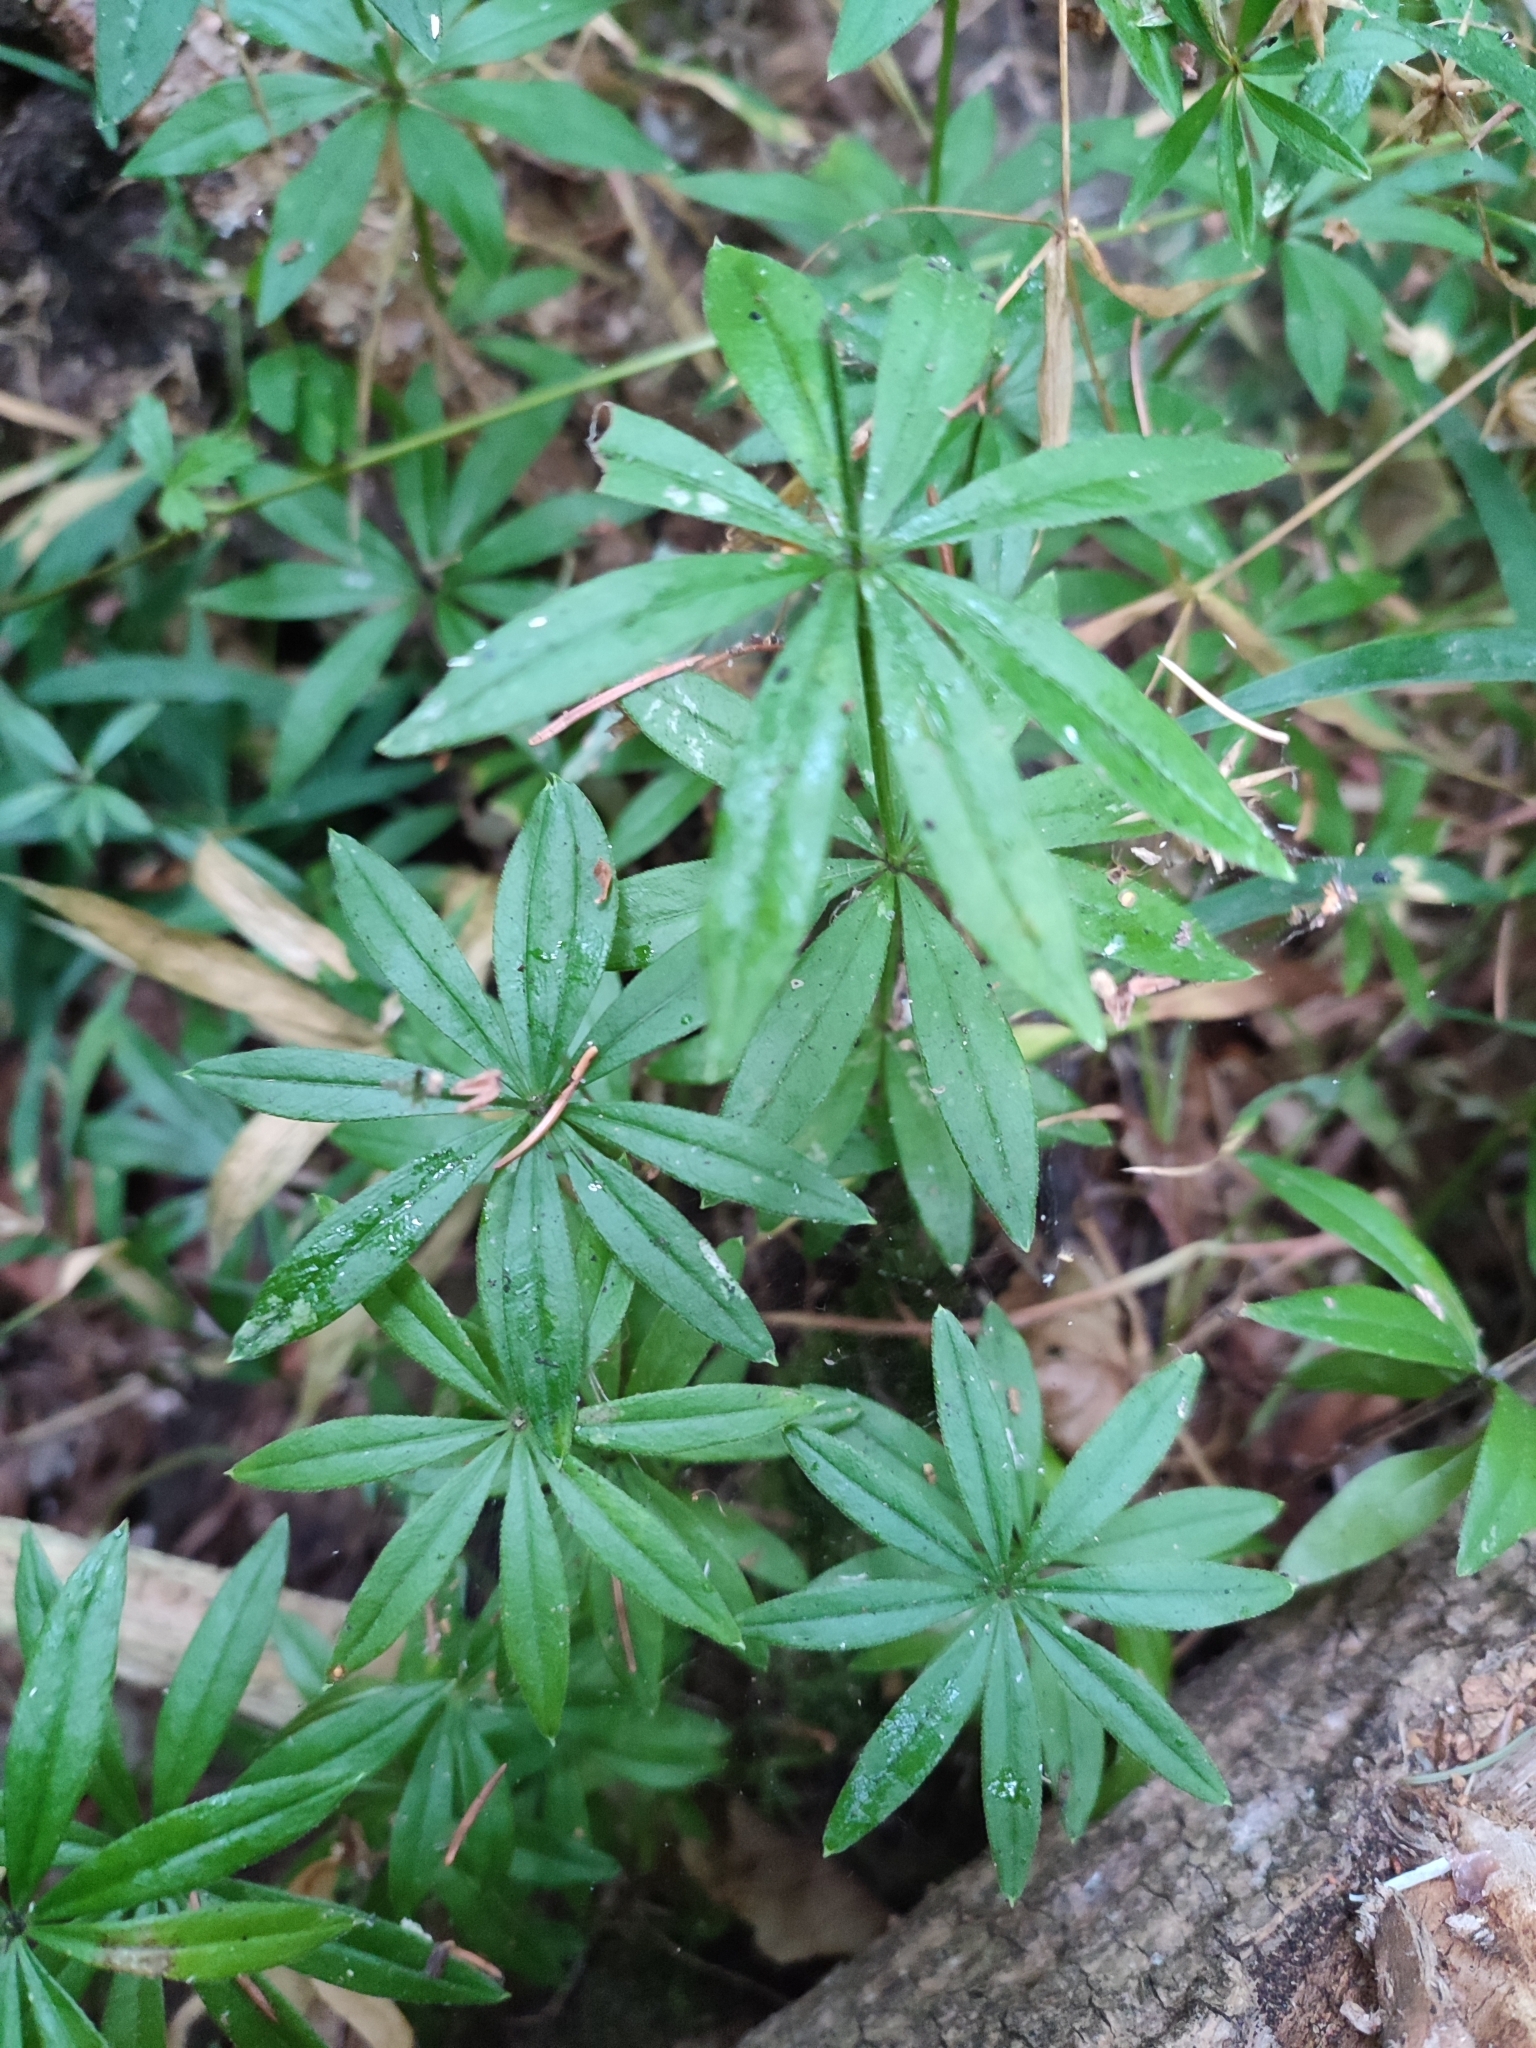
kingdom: Plantae
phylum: Tracheophyta
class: Magnoliopsida
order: Gentianales
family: Rubiaceae
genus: Galium
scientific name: Galium odoratum
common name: Sweet woodruff
